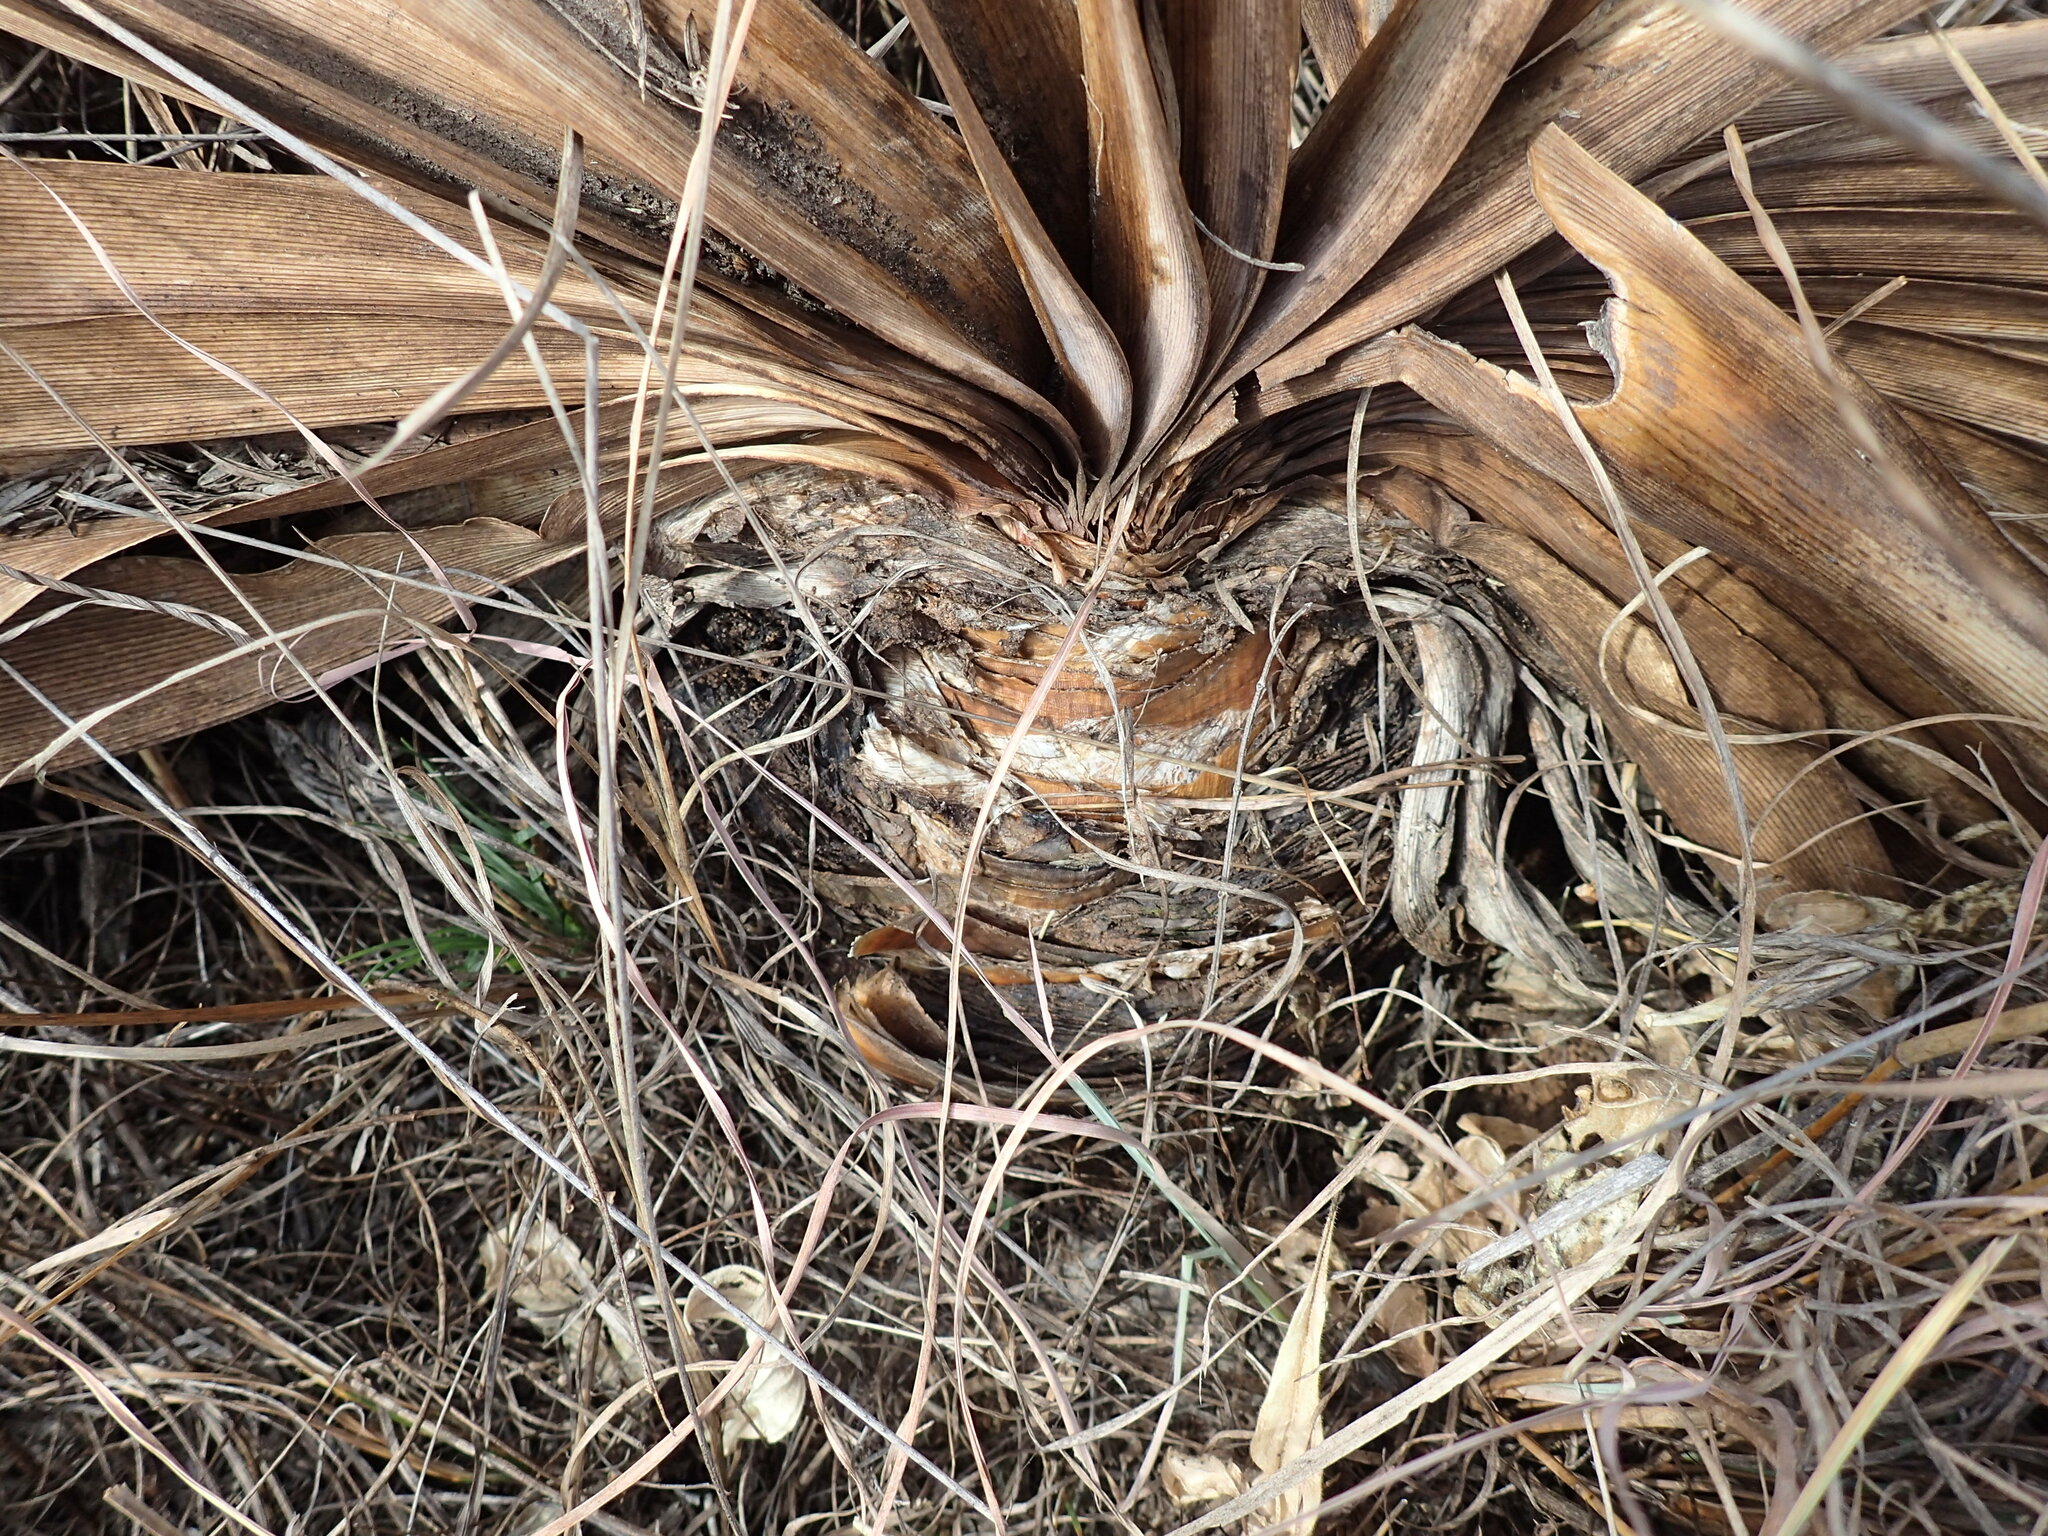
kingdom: Plantae
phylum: Tracheophyta
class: Liliopsida
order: Asparagales
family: Amaryllidaceae
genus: Boophone
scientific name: Boophone disticha
